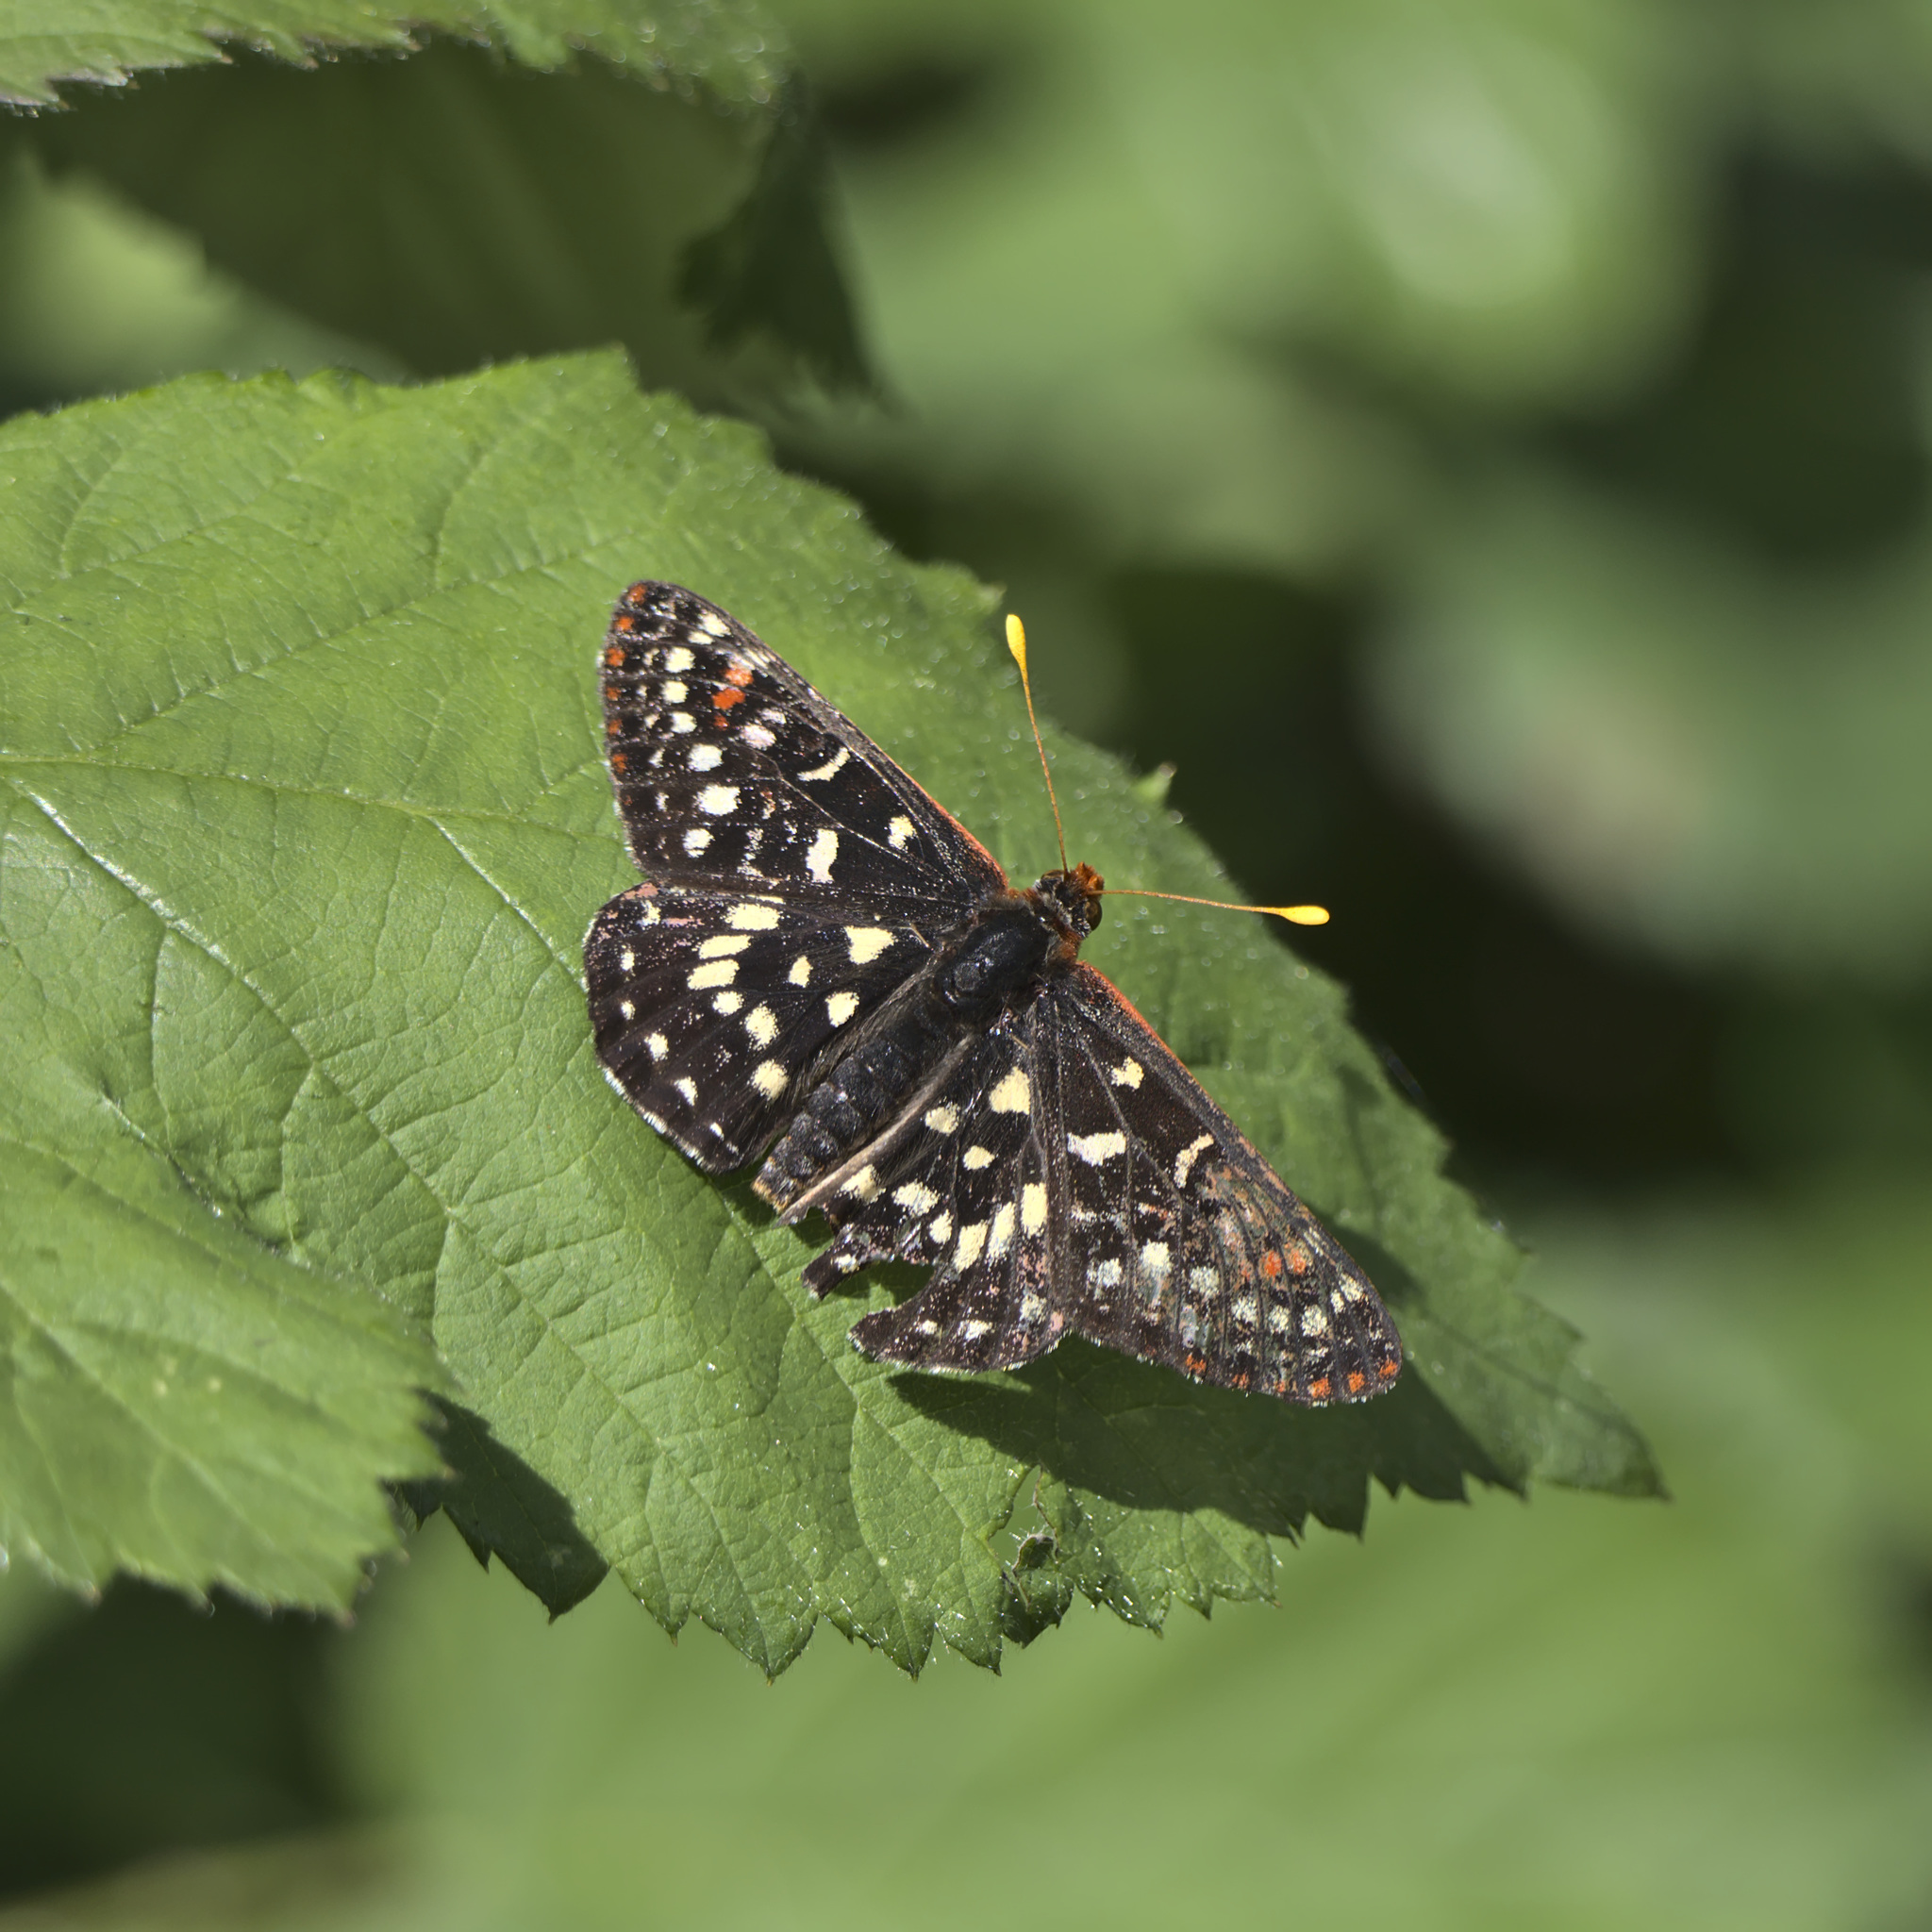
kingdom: Animalia
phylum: Arthropoda
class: Insecta
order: Lepidoptera
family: Nymphalidae
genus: Occidryas
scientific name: Occidryas colon
